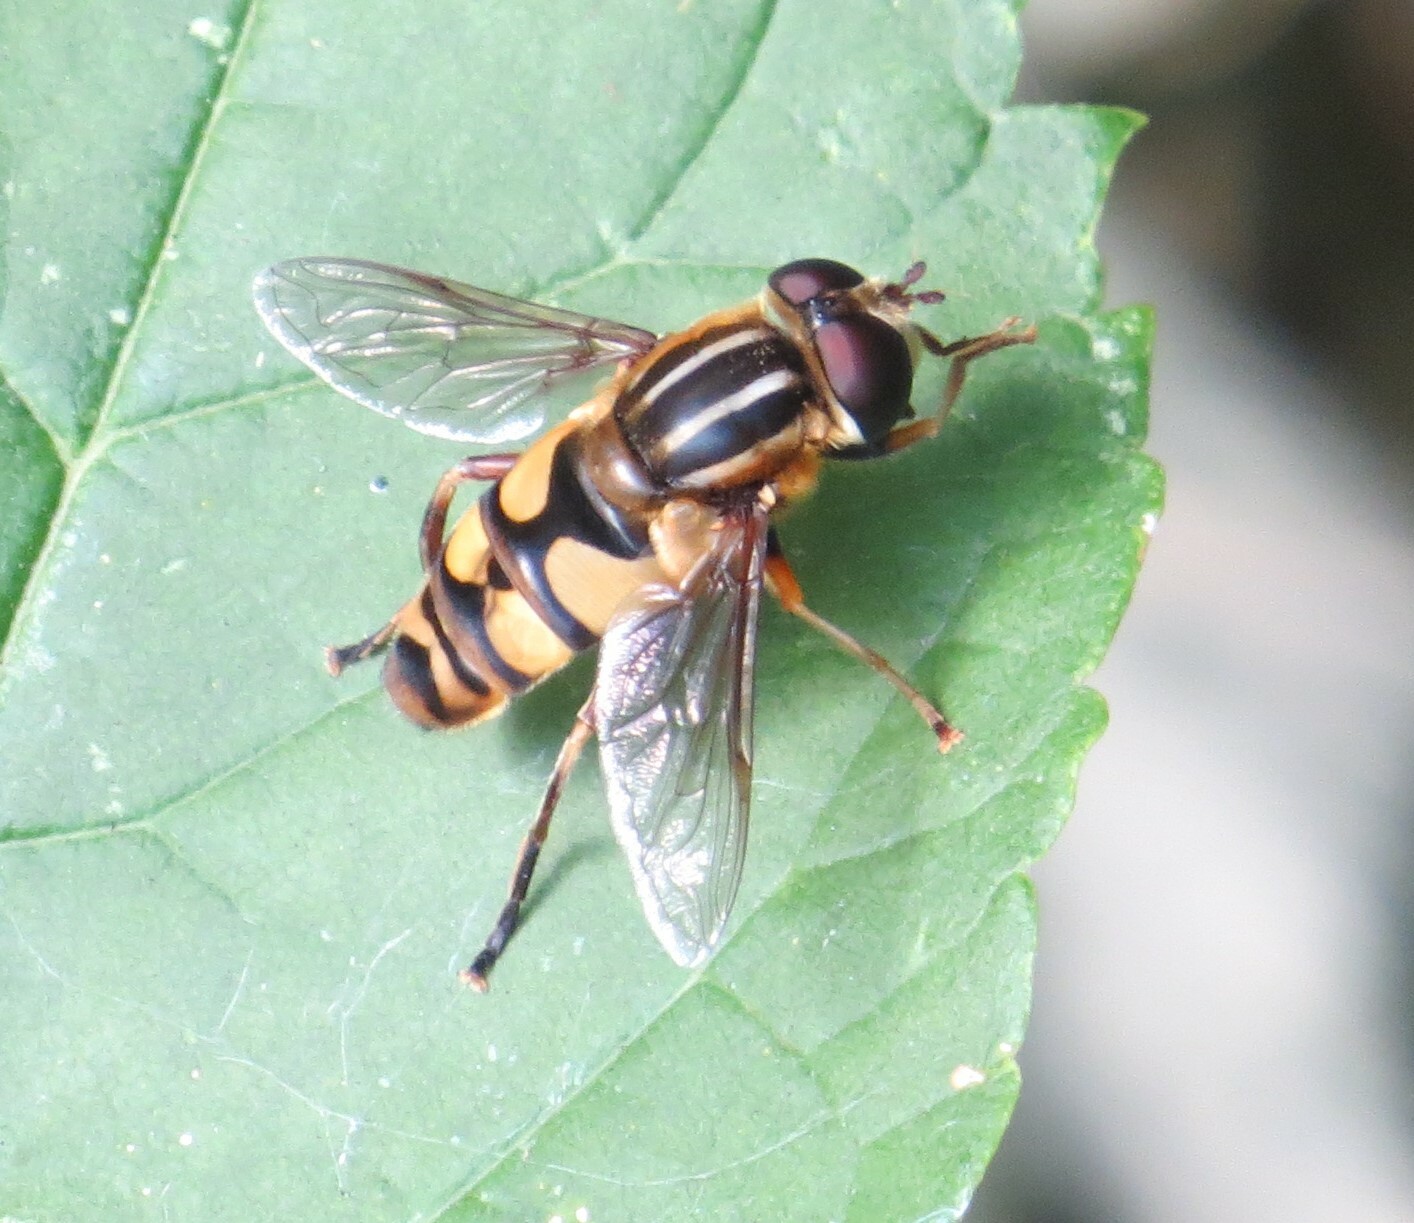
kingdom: Animalia
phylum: Arthropoda
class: Insecta
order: Diptera
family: Syrphidae
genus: Helophilus
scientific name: Helophilus fasciatus
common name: Narrow-headed marsh fly
